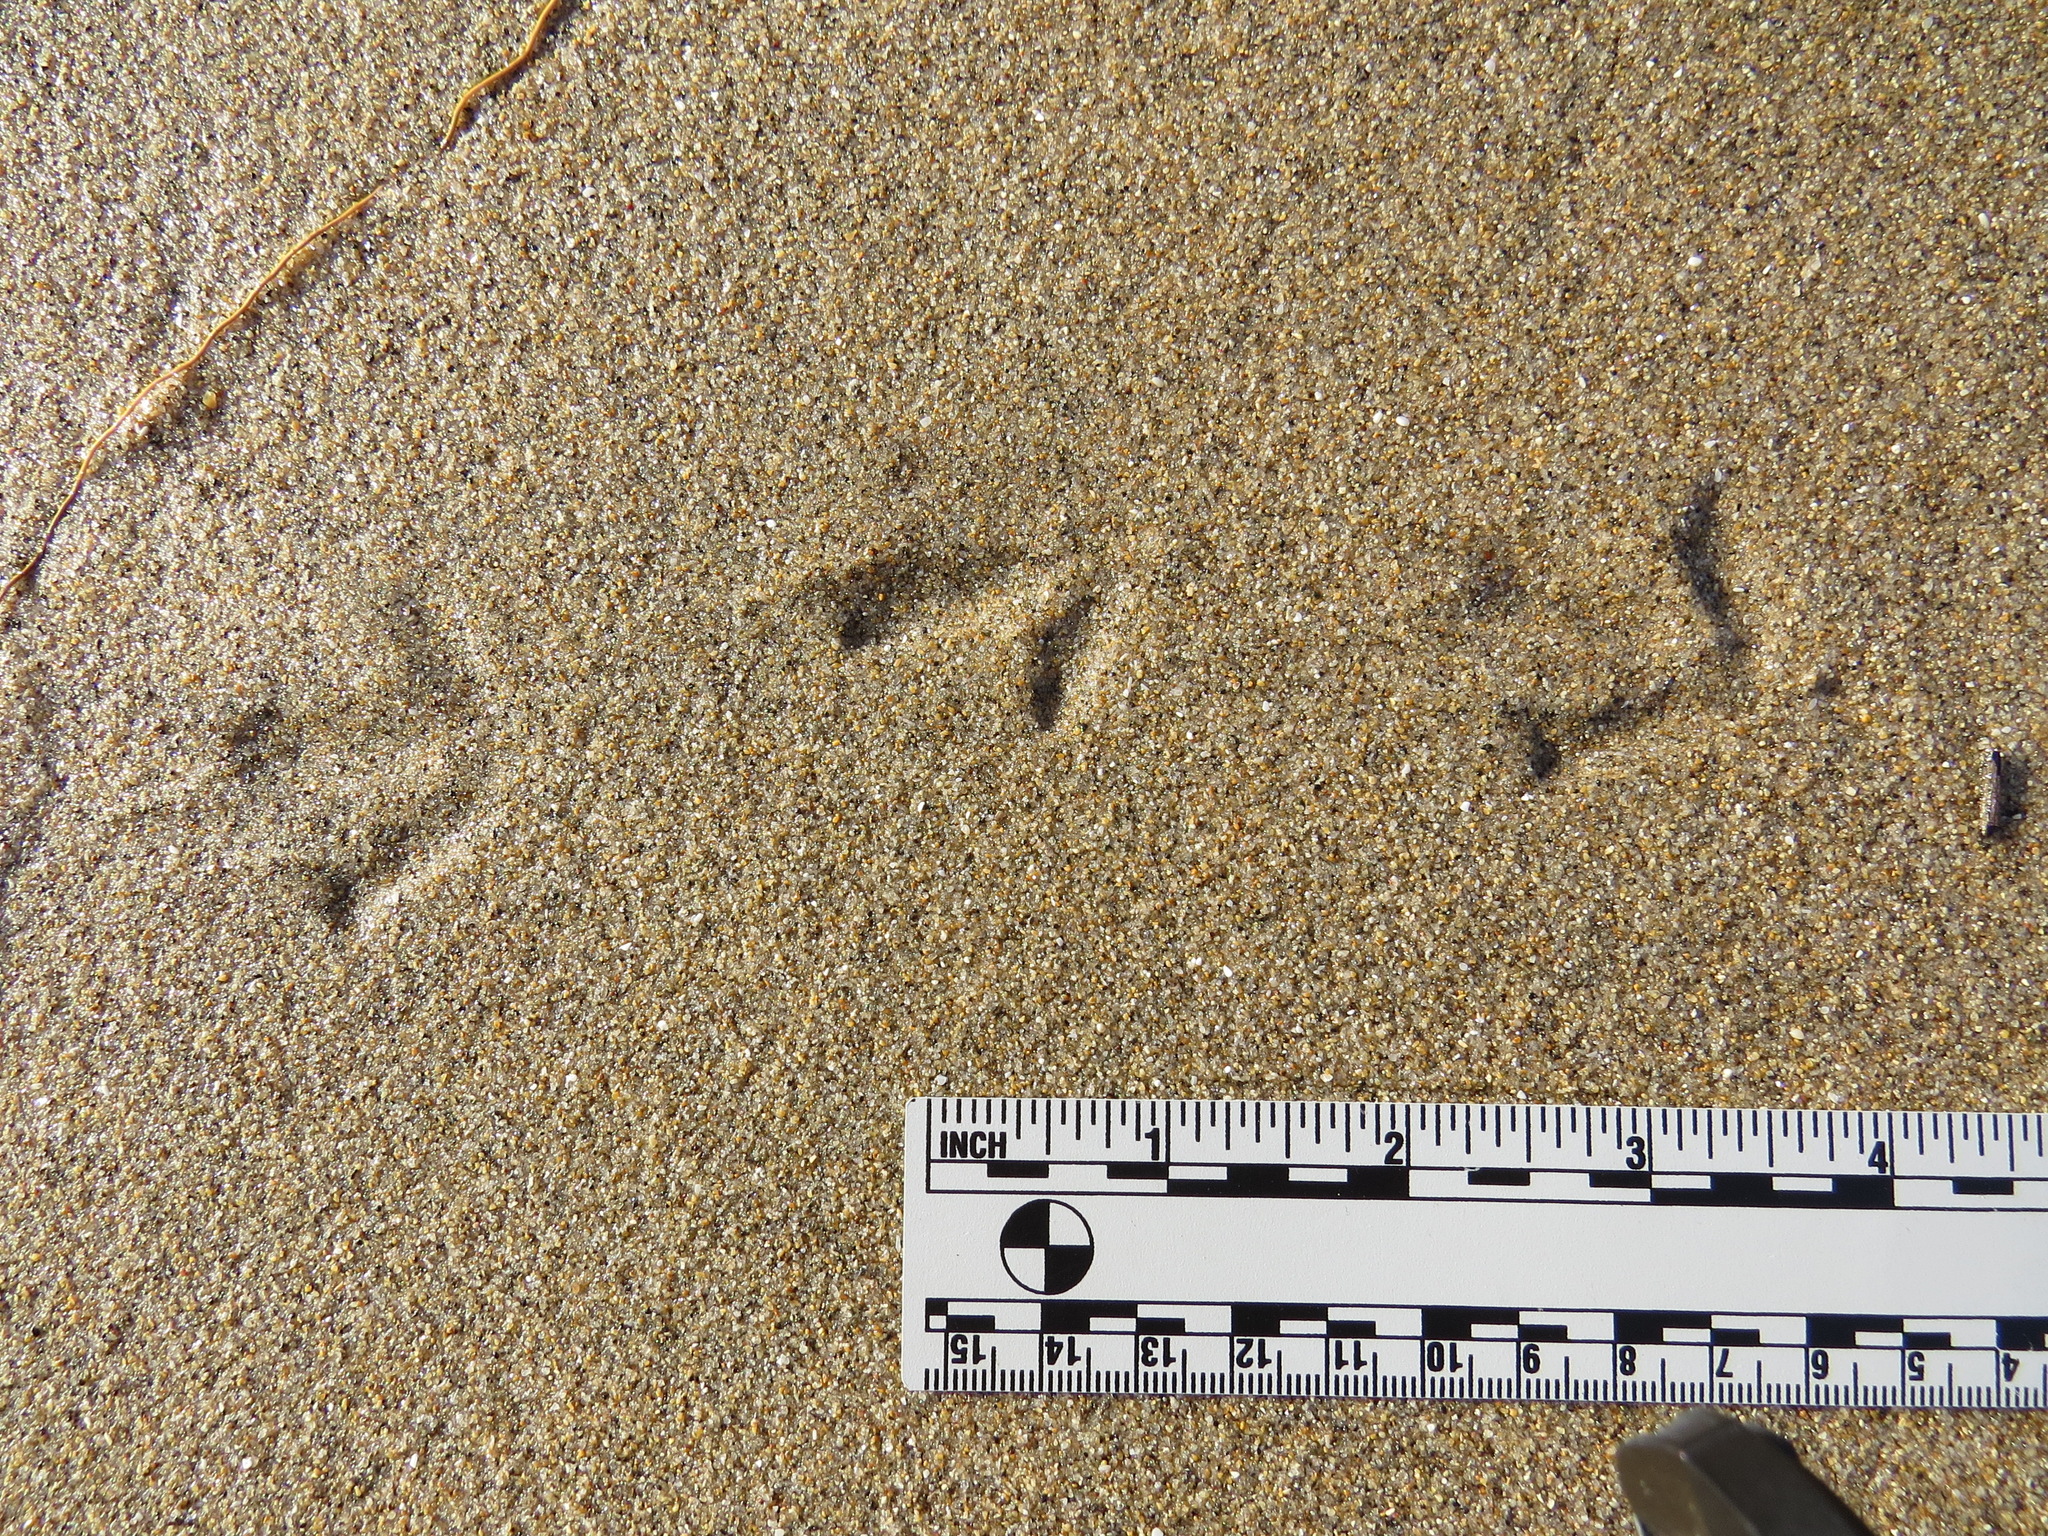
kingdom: Animalia
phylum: Chordata
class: Aves
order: Charadriiformes
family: Scolopacidae
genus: Arenaria
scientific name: Arenaria melanocephala
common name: Black turnstone
